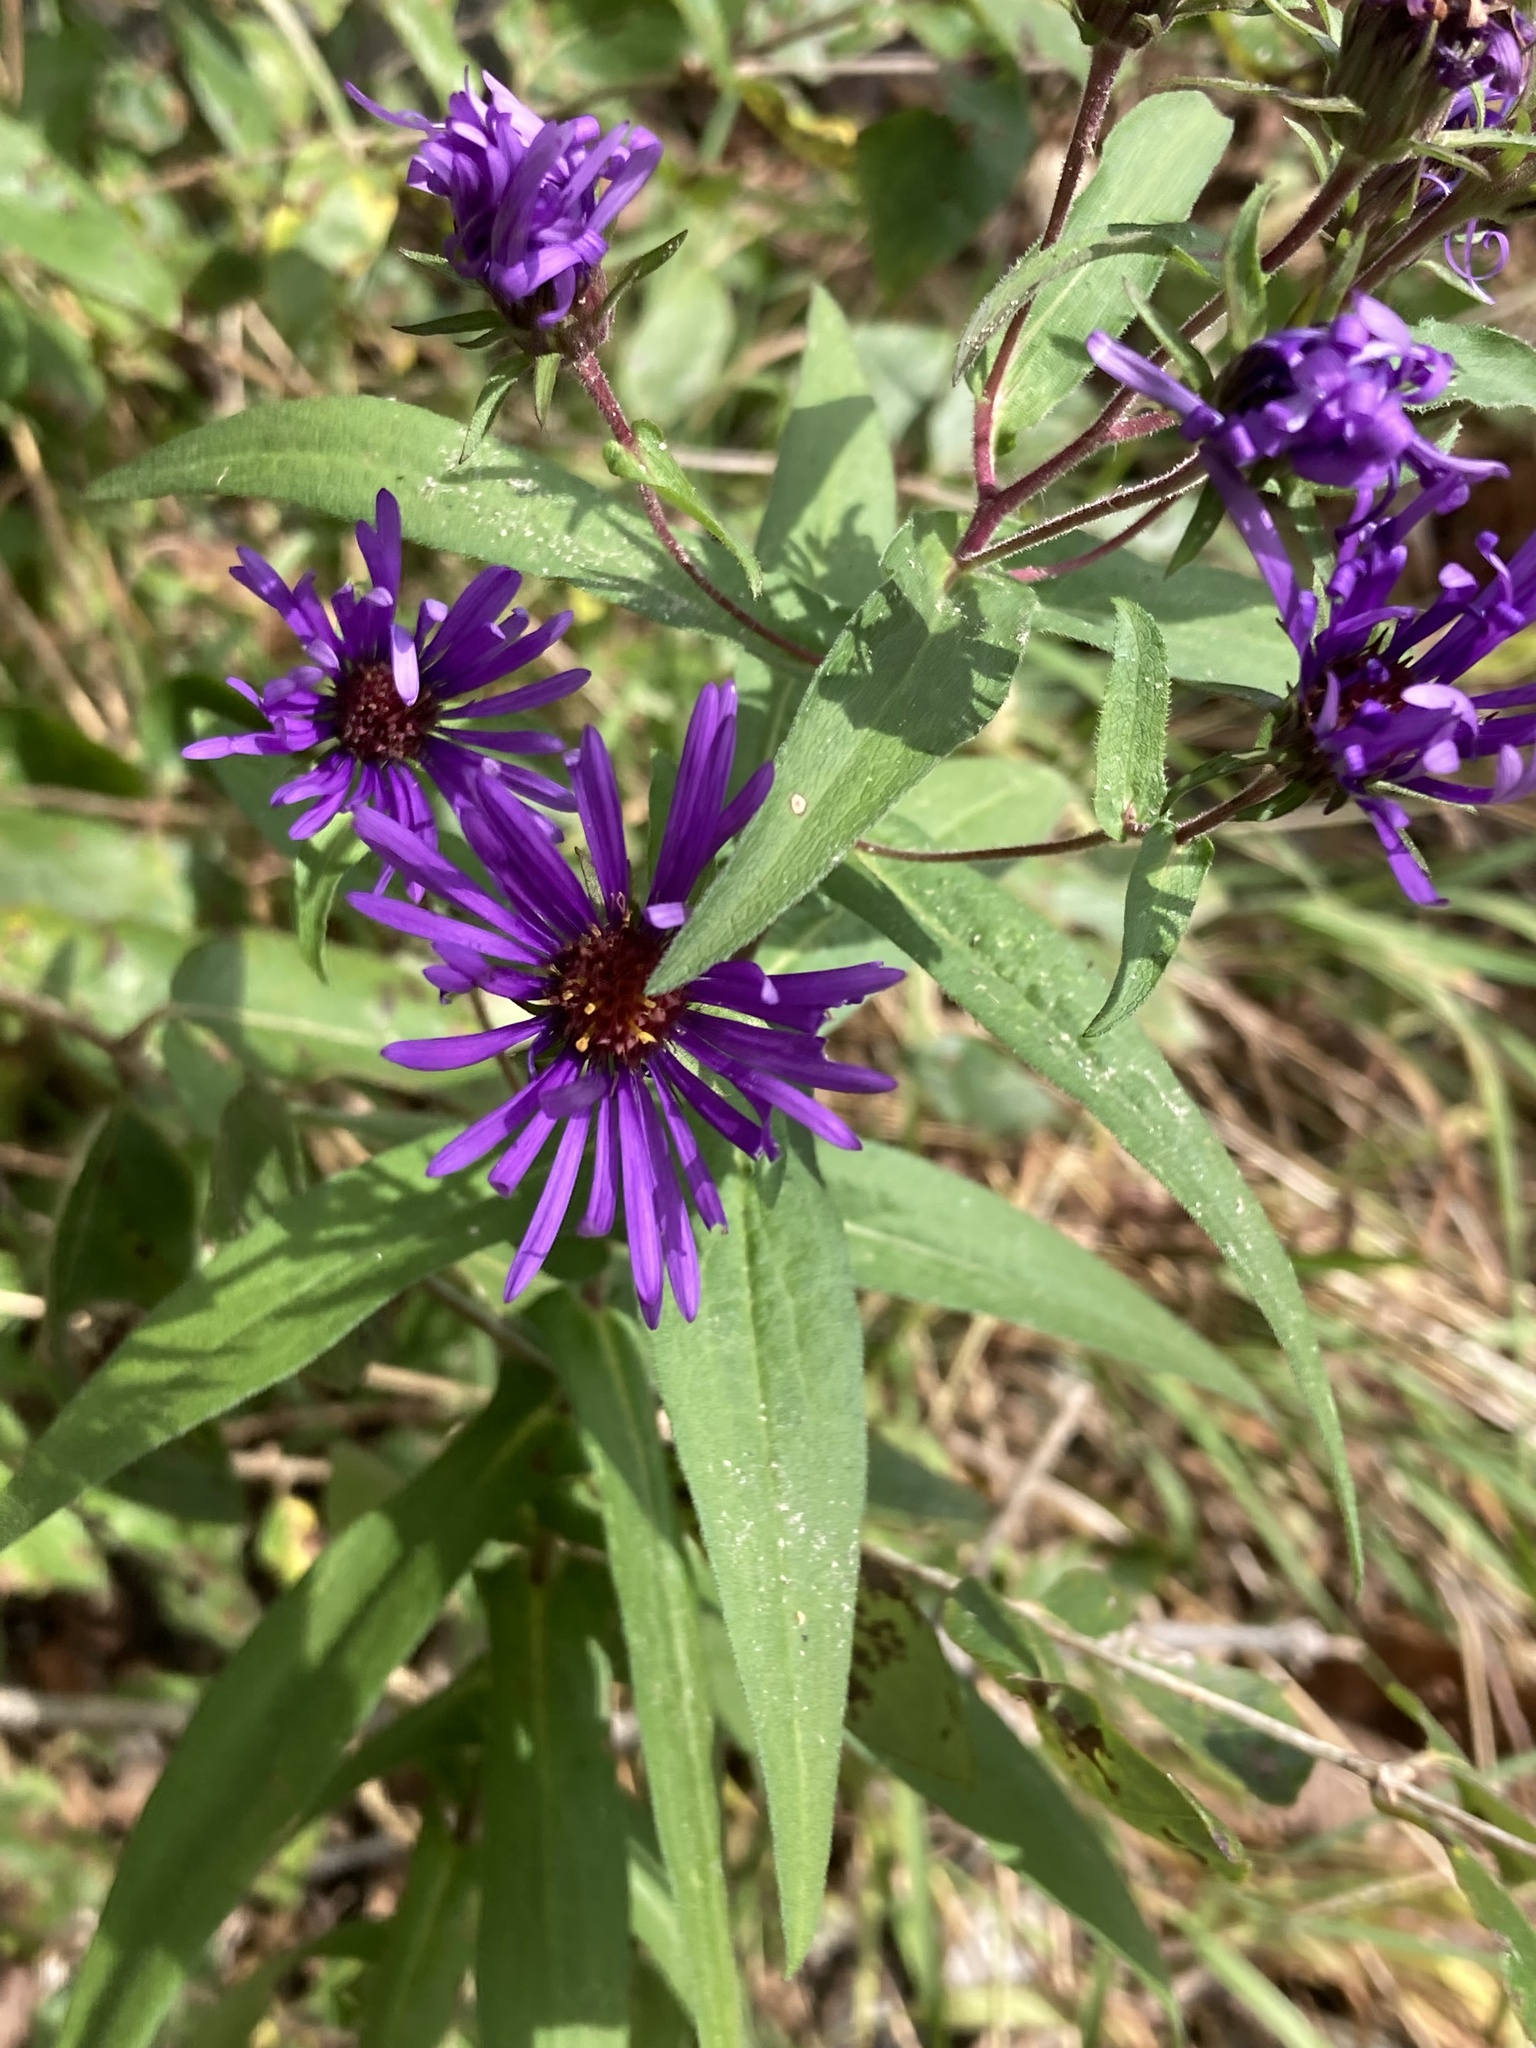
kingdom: Plantae
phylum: Tracheophyta
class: Magnoliopsida
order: Asterales
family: Asteraceae
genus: Symphyotrichum
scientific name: Symphyotrichum novae-angliae
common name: Michaelmas daisy
